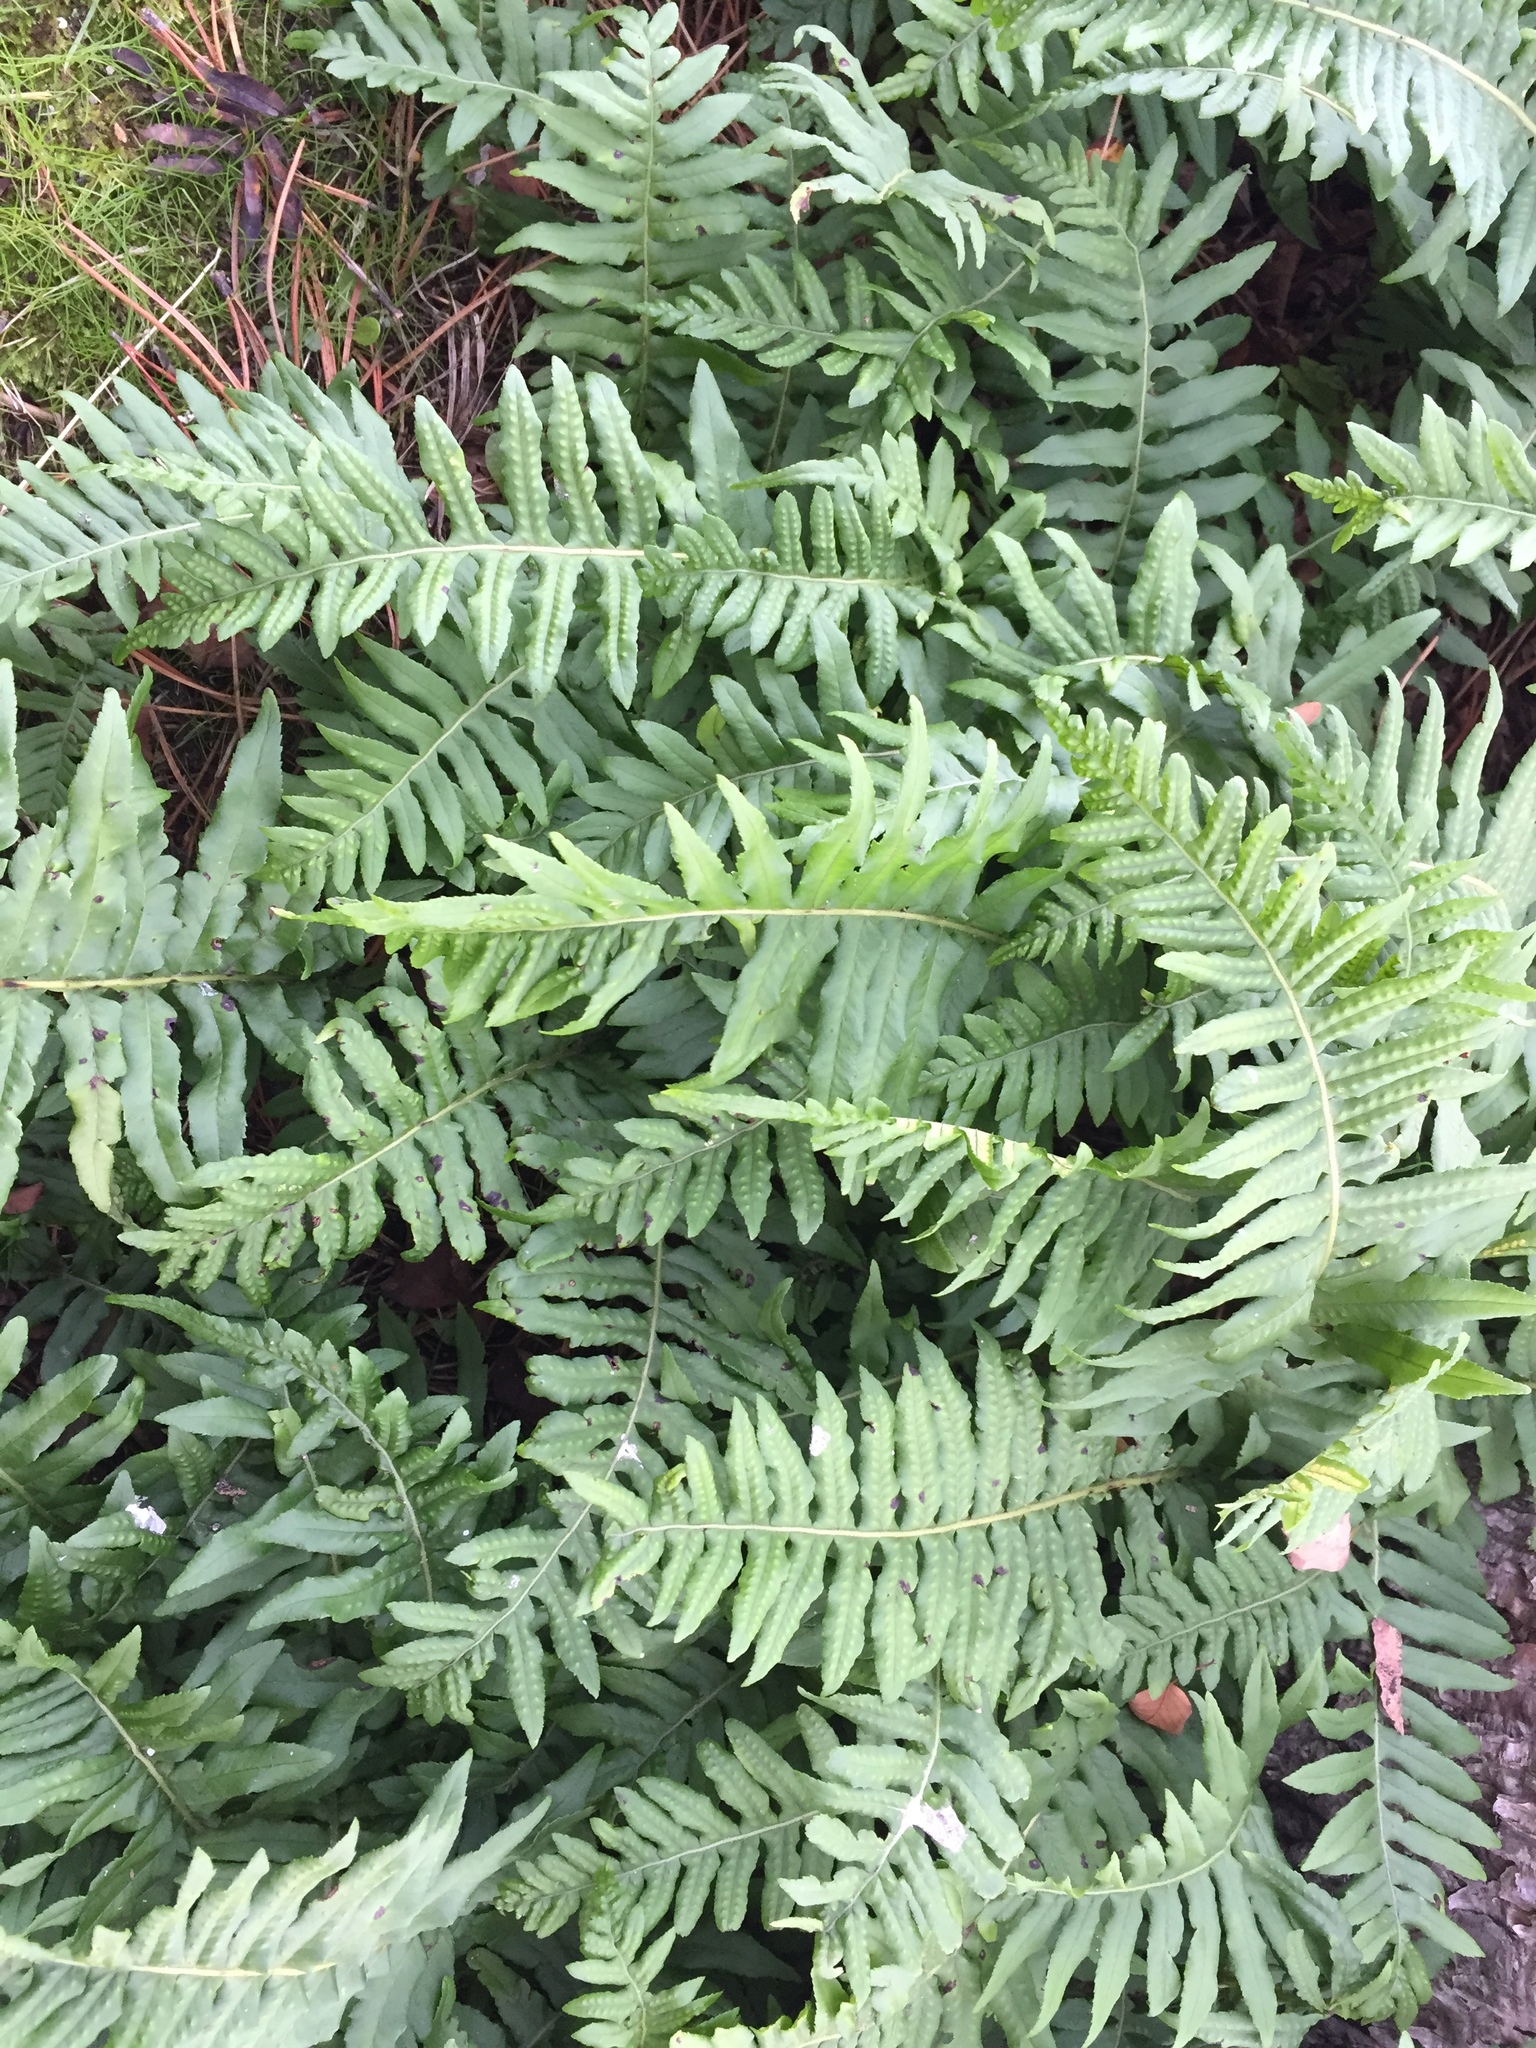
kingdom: Plantae
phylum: Tracheophyta
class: Polypodiopsida
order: Polypodiales
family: Polypodiaceae
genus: Polypodium
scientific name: Polypodium glycyrrhiza
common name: Licorice fern
